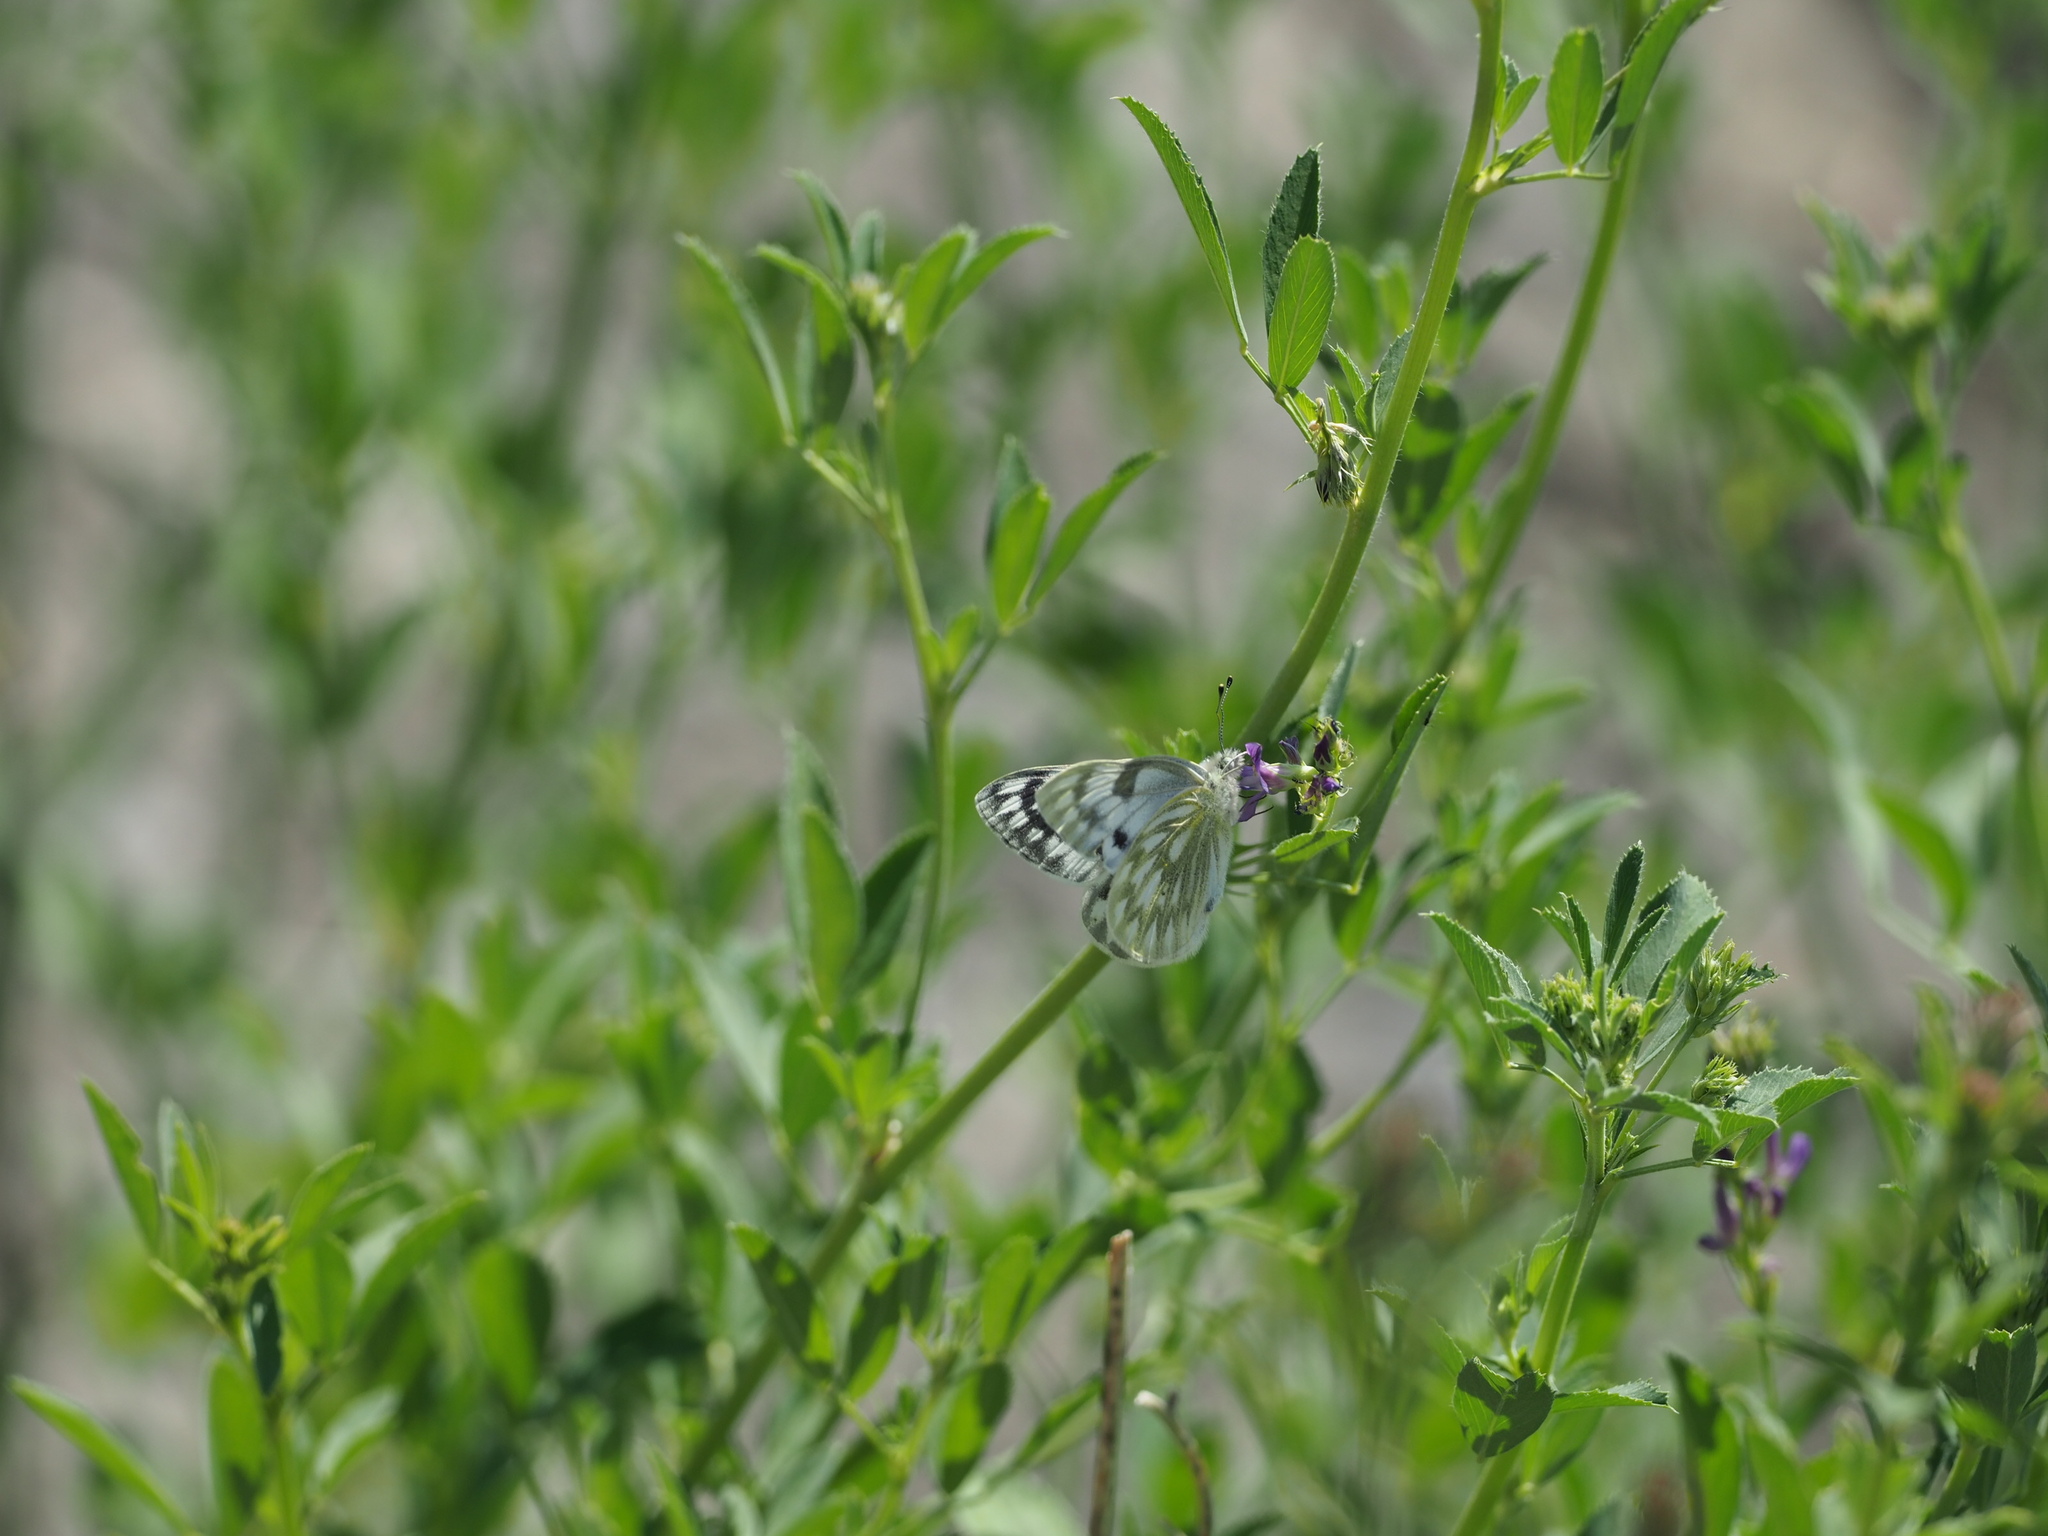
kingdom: Animalia
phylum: Arthropoda
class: Insecta
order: Lepidoptera
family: Pieridae
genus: Pontia
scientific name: Pontia occidentalis
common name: Western white
